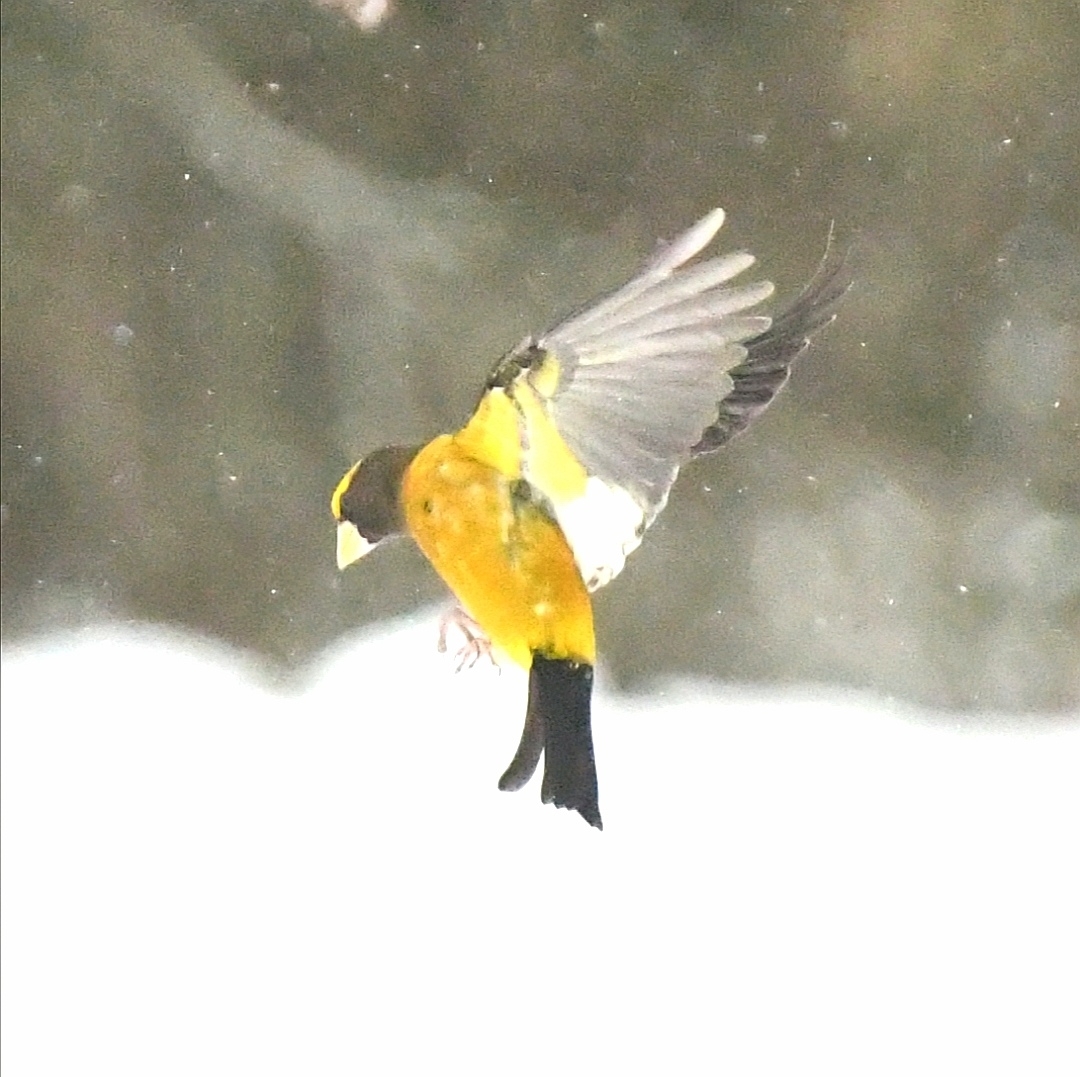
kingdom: Animalia
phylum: Chordata
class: Aves
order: Passeriformes
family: Fringillidae
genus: Hesperiphona
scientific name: Hesperiphona vespertina
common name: Evening grosbeak
